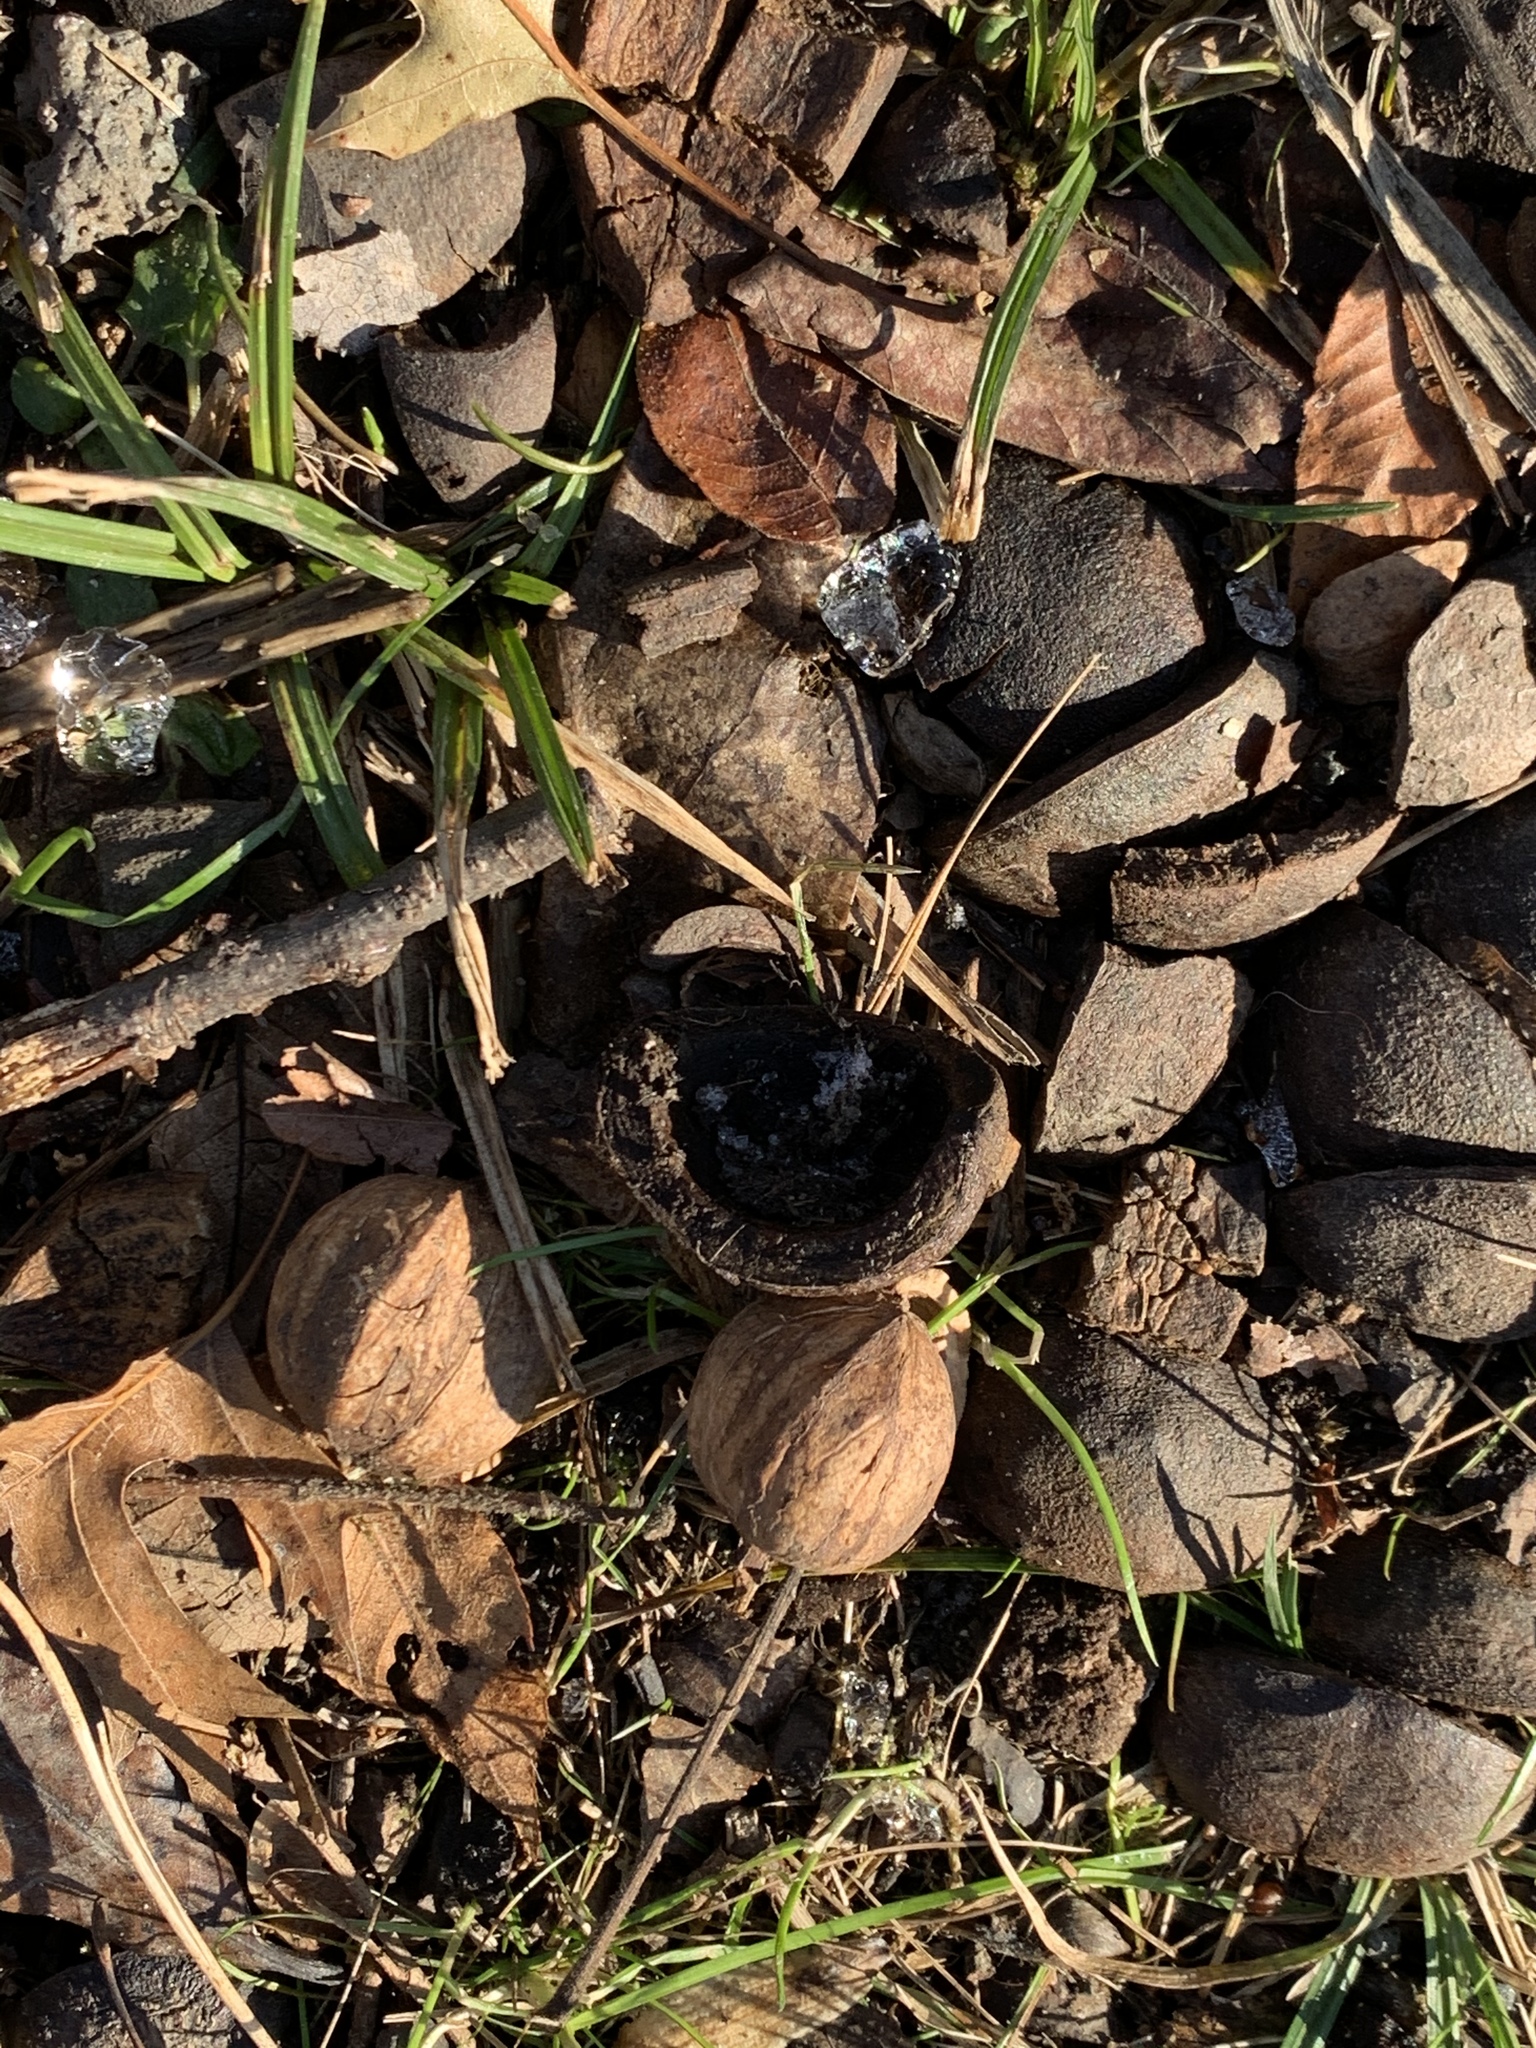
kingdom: Plantae
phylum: Tracheophyta
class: Magnoliopsida
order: Fagales
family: Juglandaceae
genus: Carya
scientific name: Carya ovata
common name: Shagbark hickory
